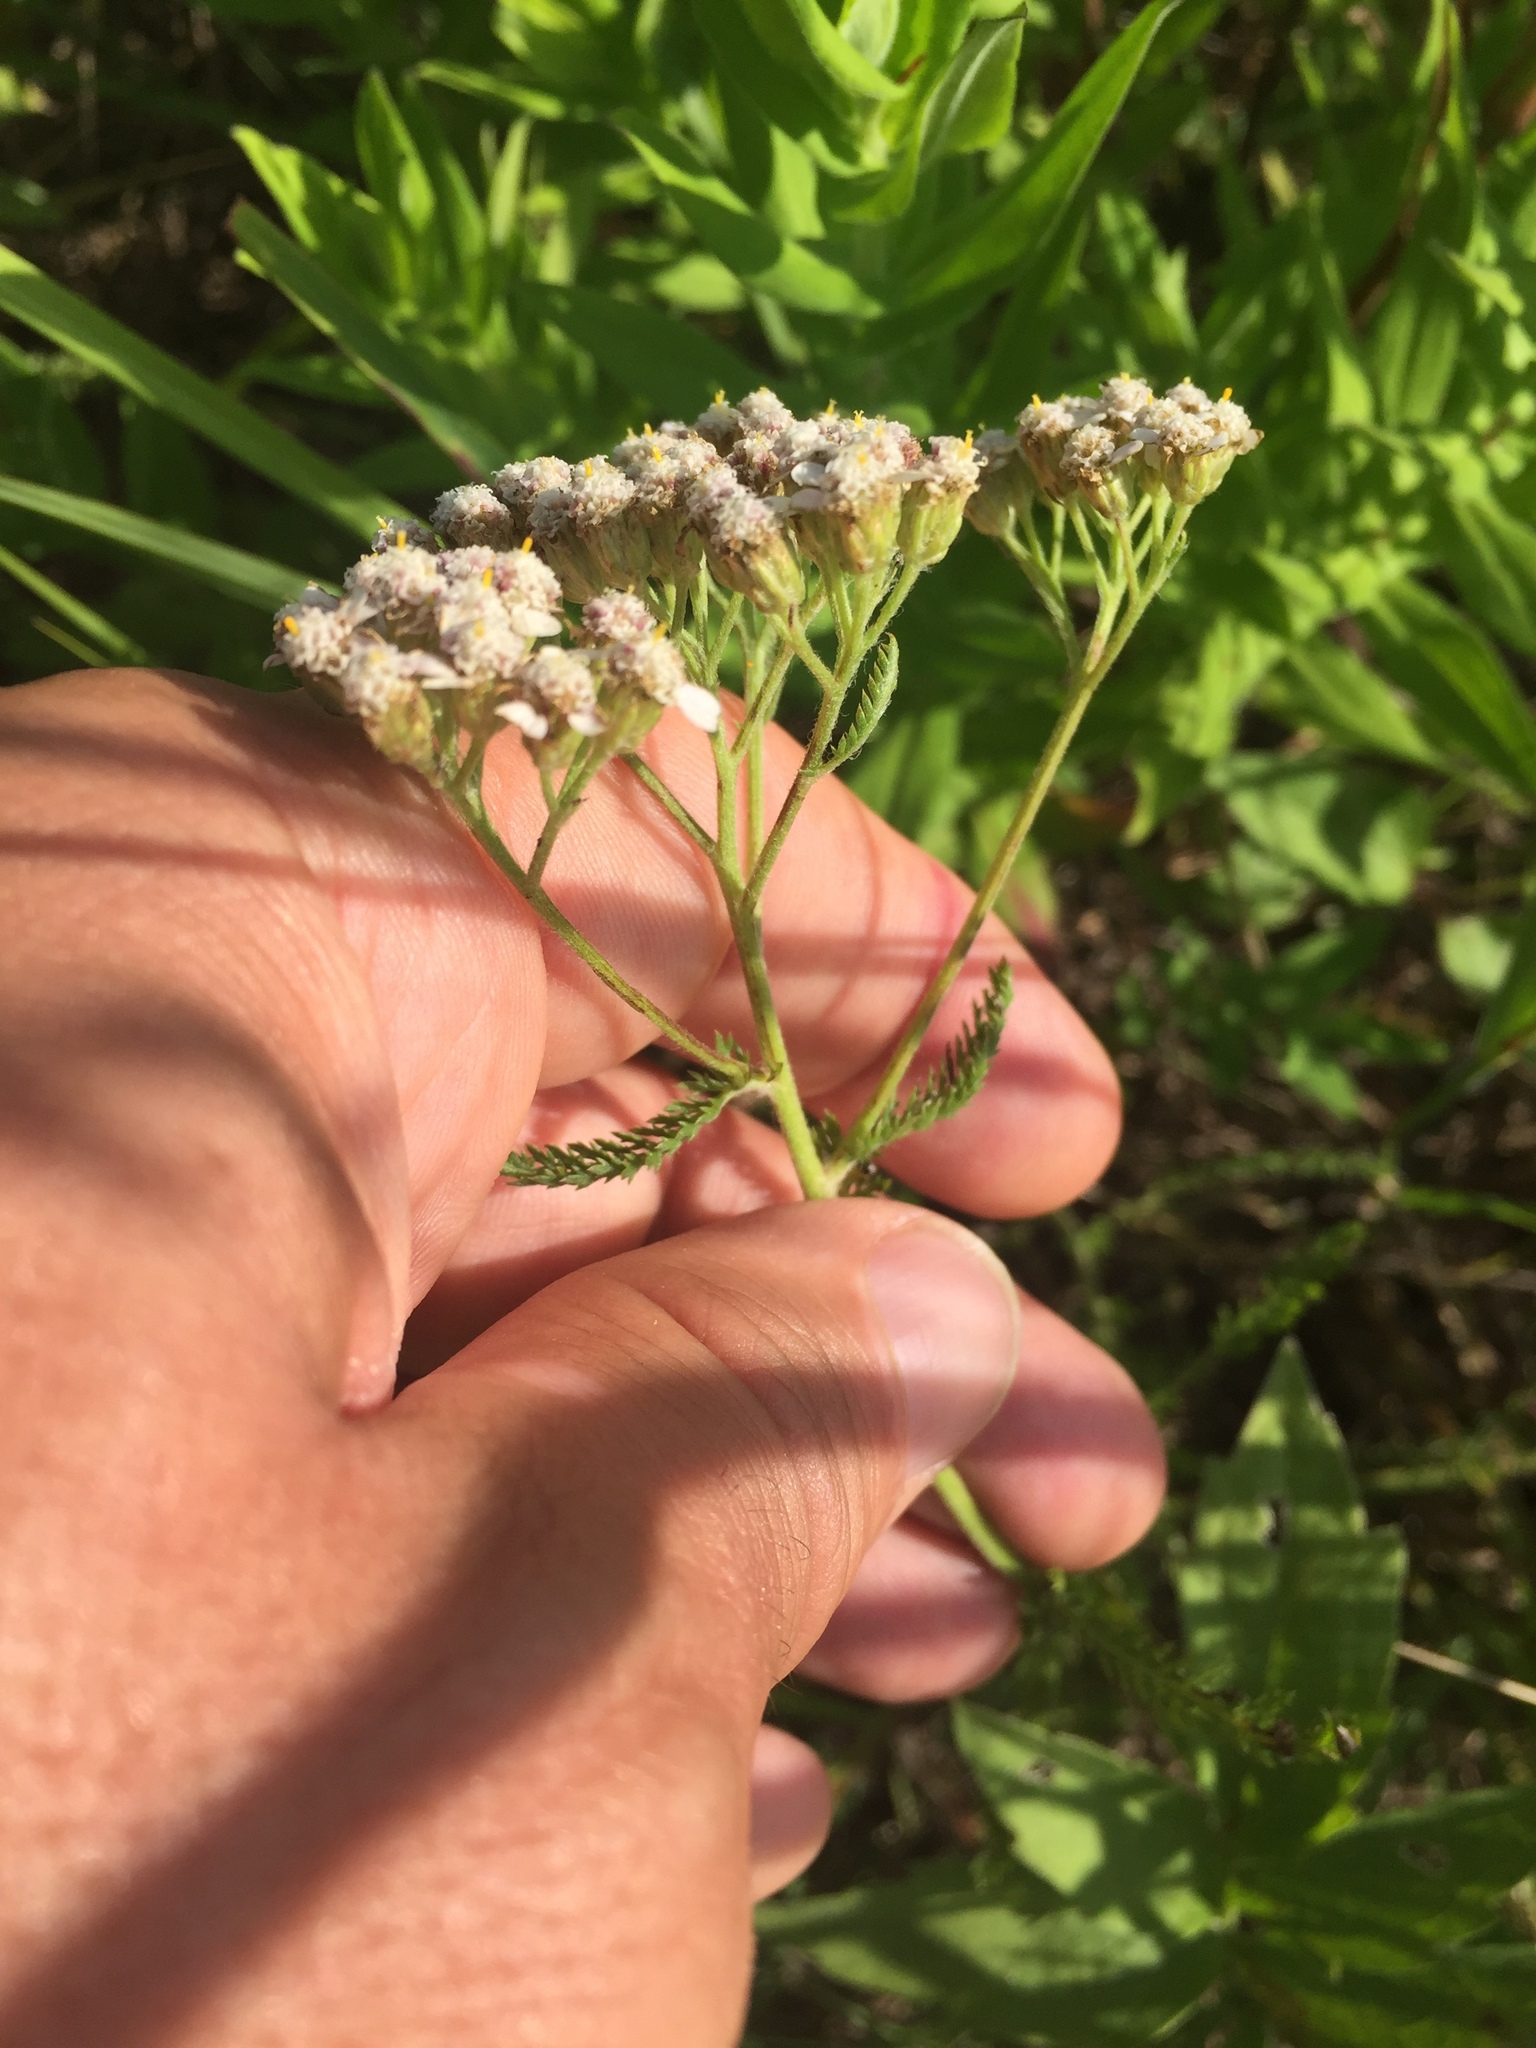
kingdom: Plantae
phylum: Tracheophyta
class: Magnoliopsida
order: Asterales
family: Asteraceae
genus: Achillea
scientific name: Achillea millefolium
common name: Yarrow
